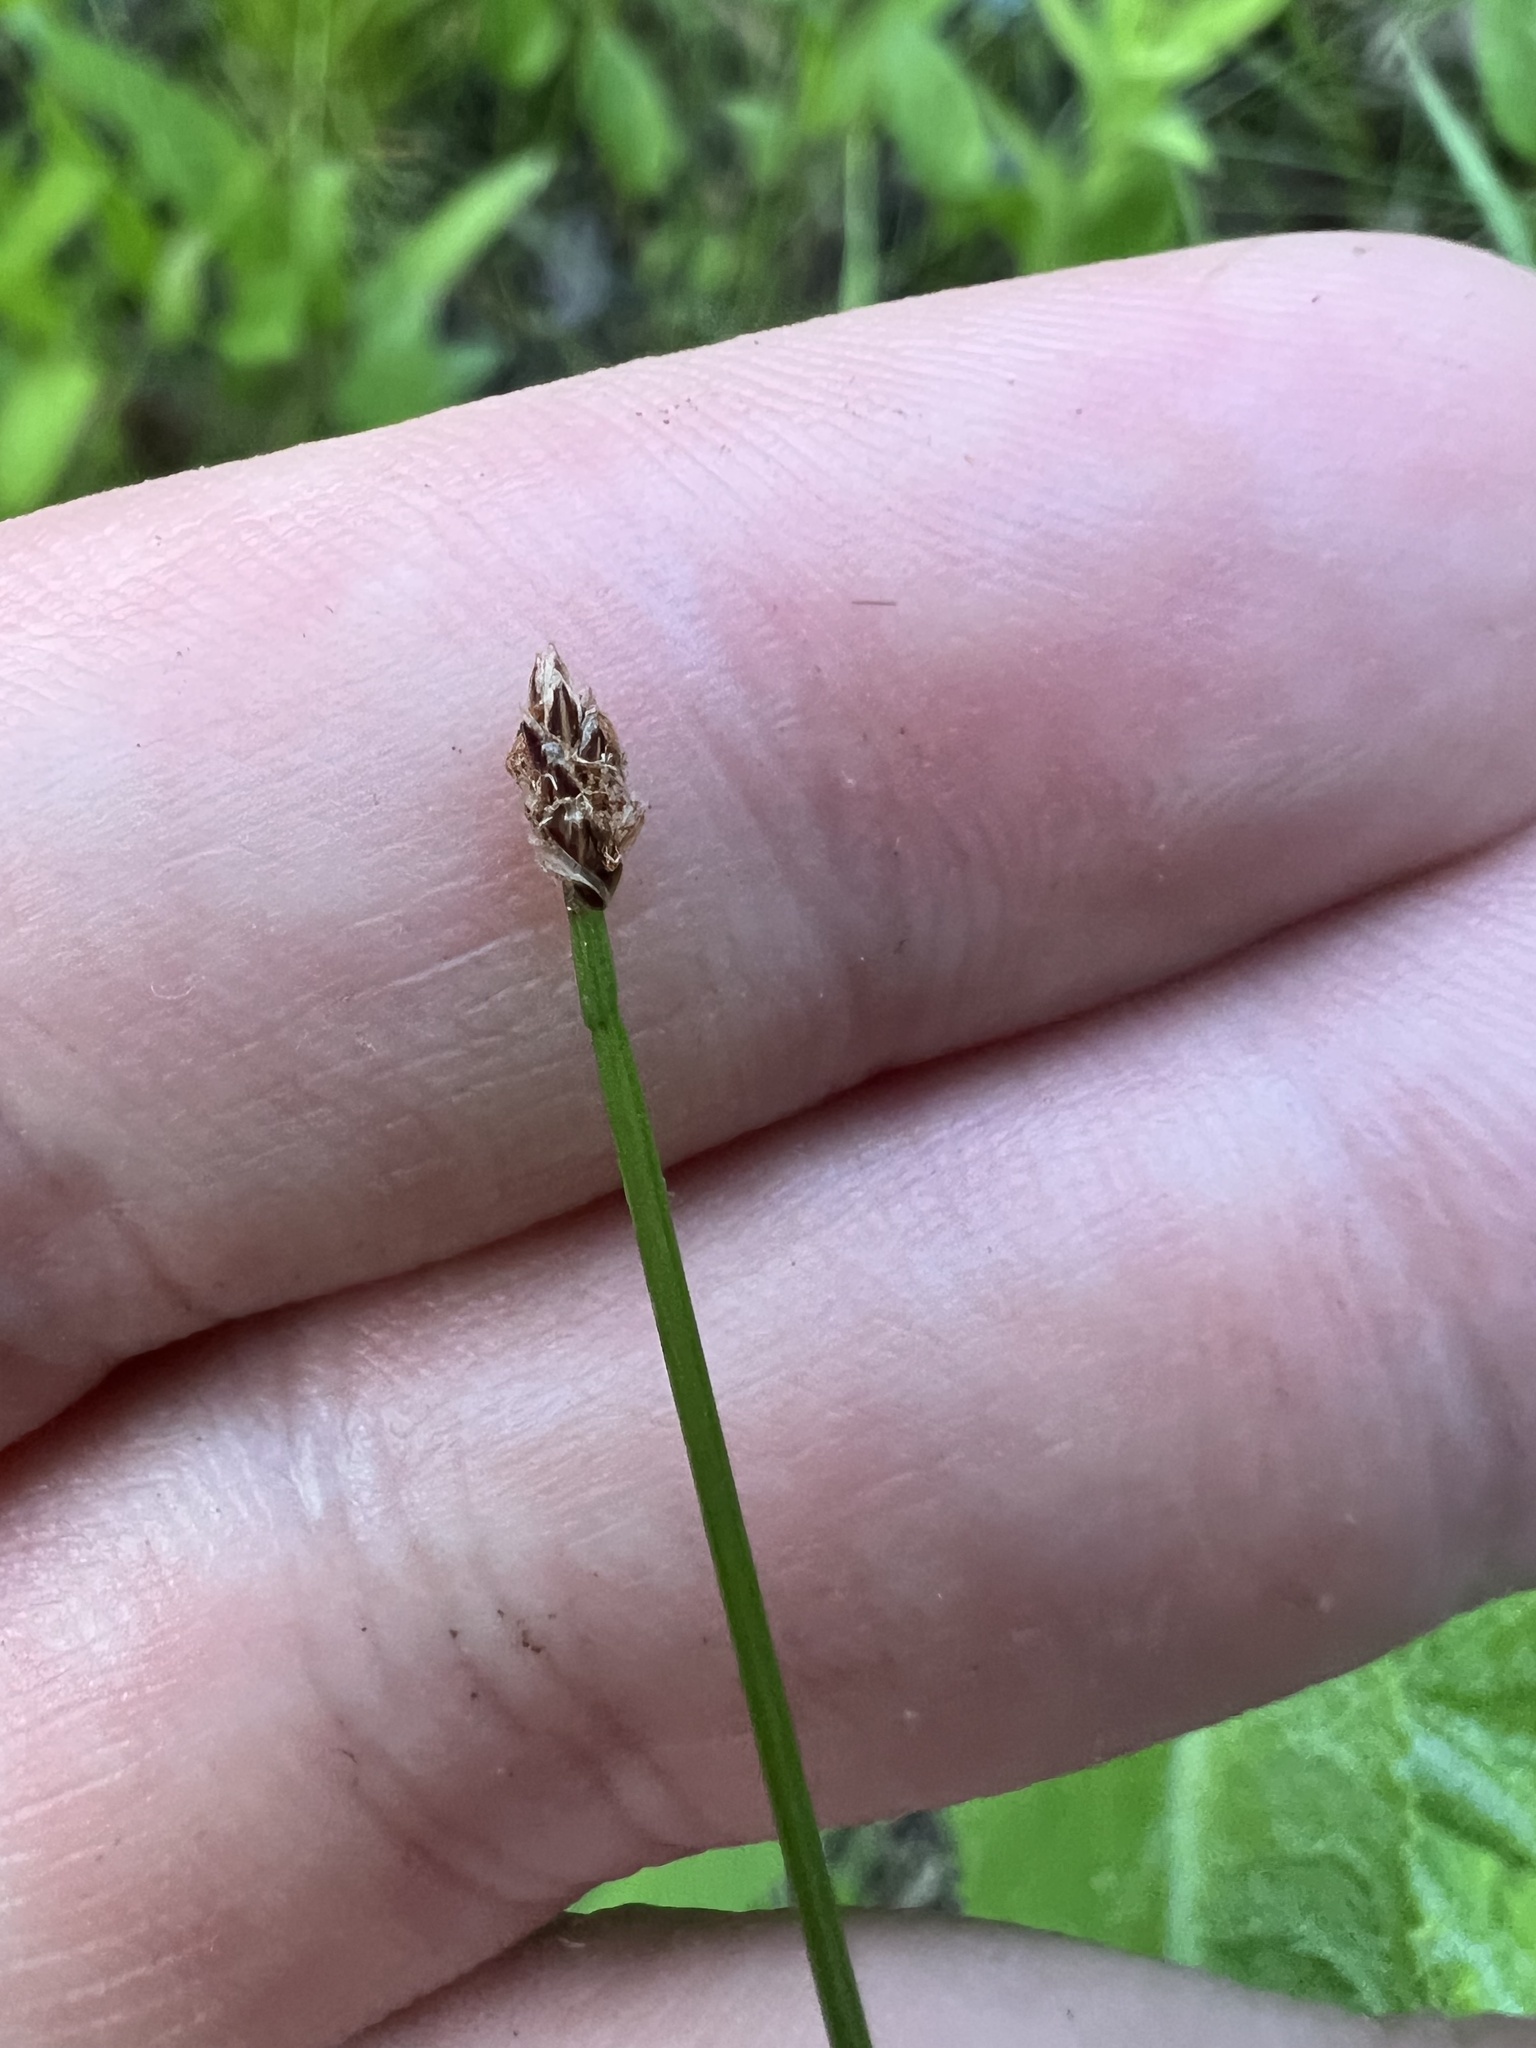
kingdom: Plantae
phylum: Tracheophyta
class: Liliopsida
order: Poales
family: Cyperaceae
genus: Eleocharis
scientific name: Eleocharis tenuis
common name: Dog's hair
